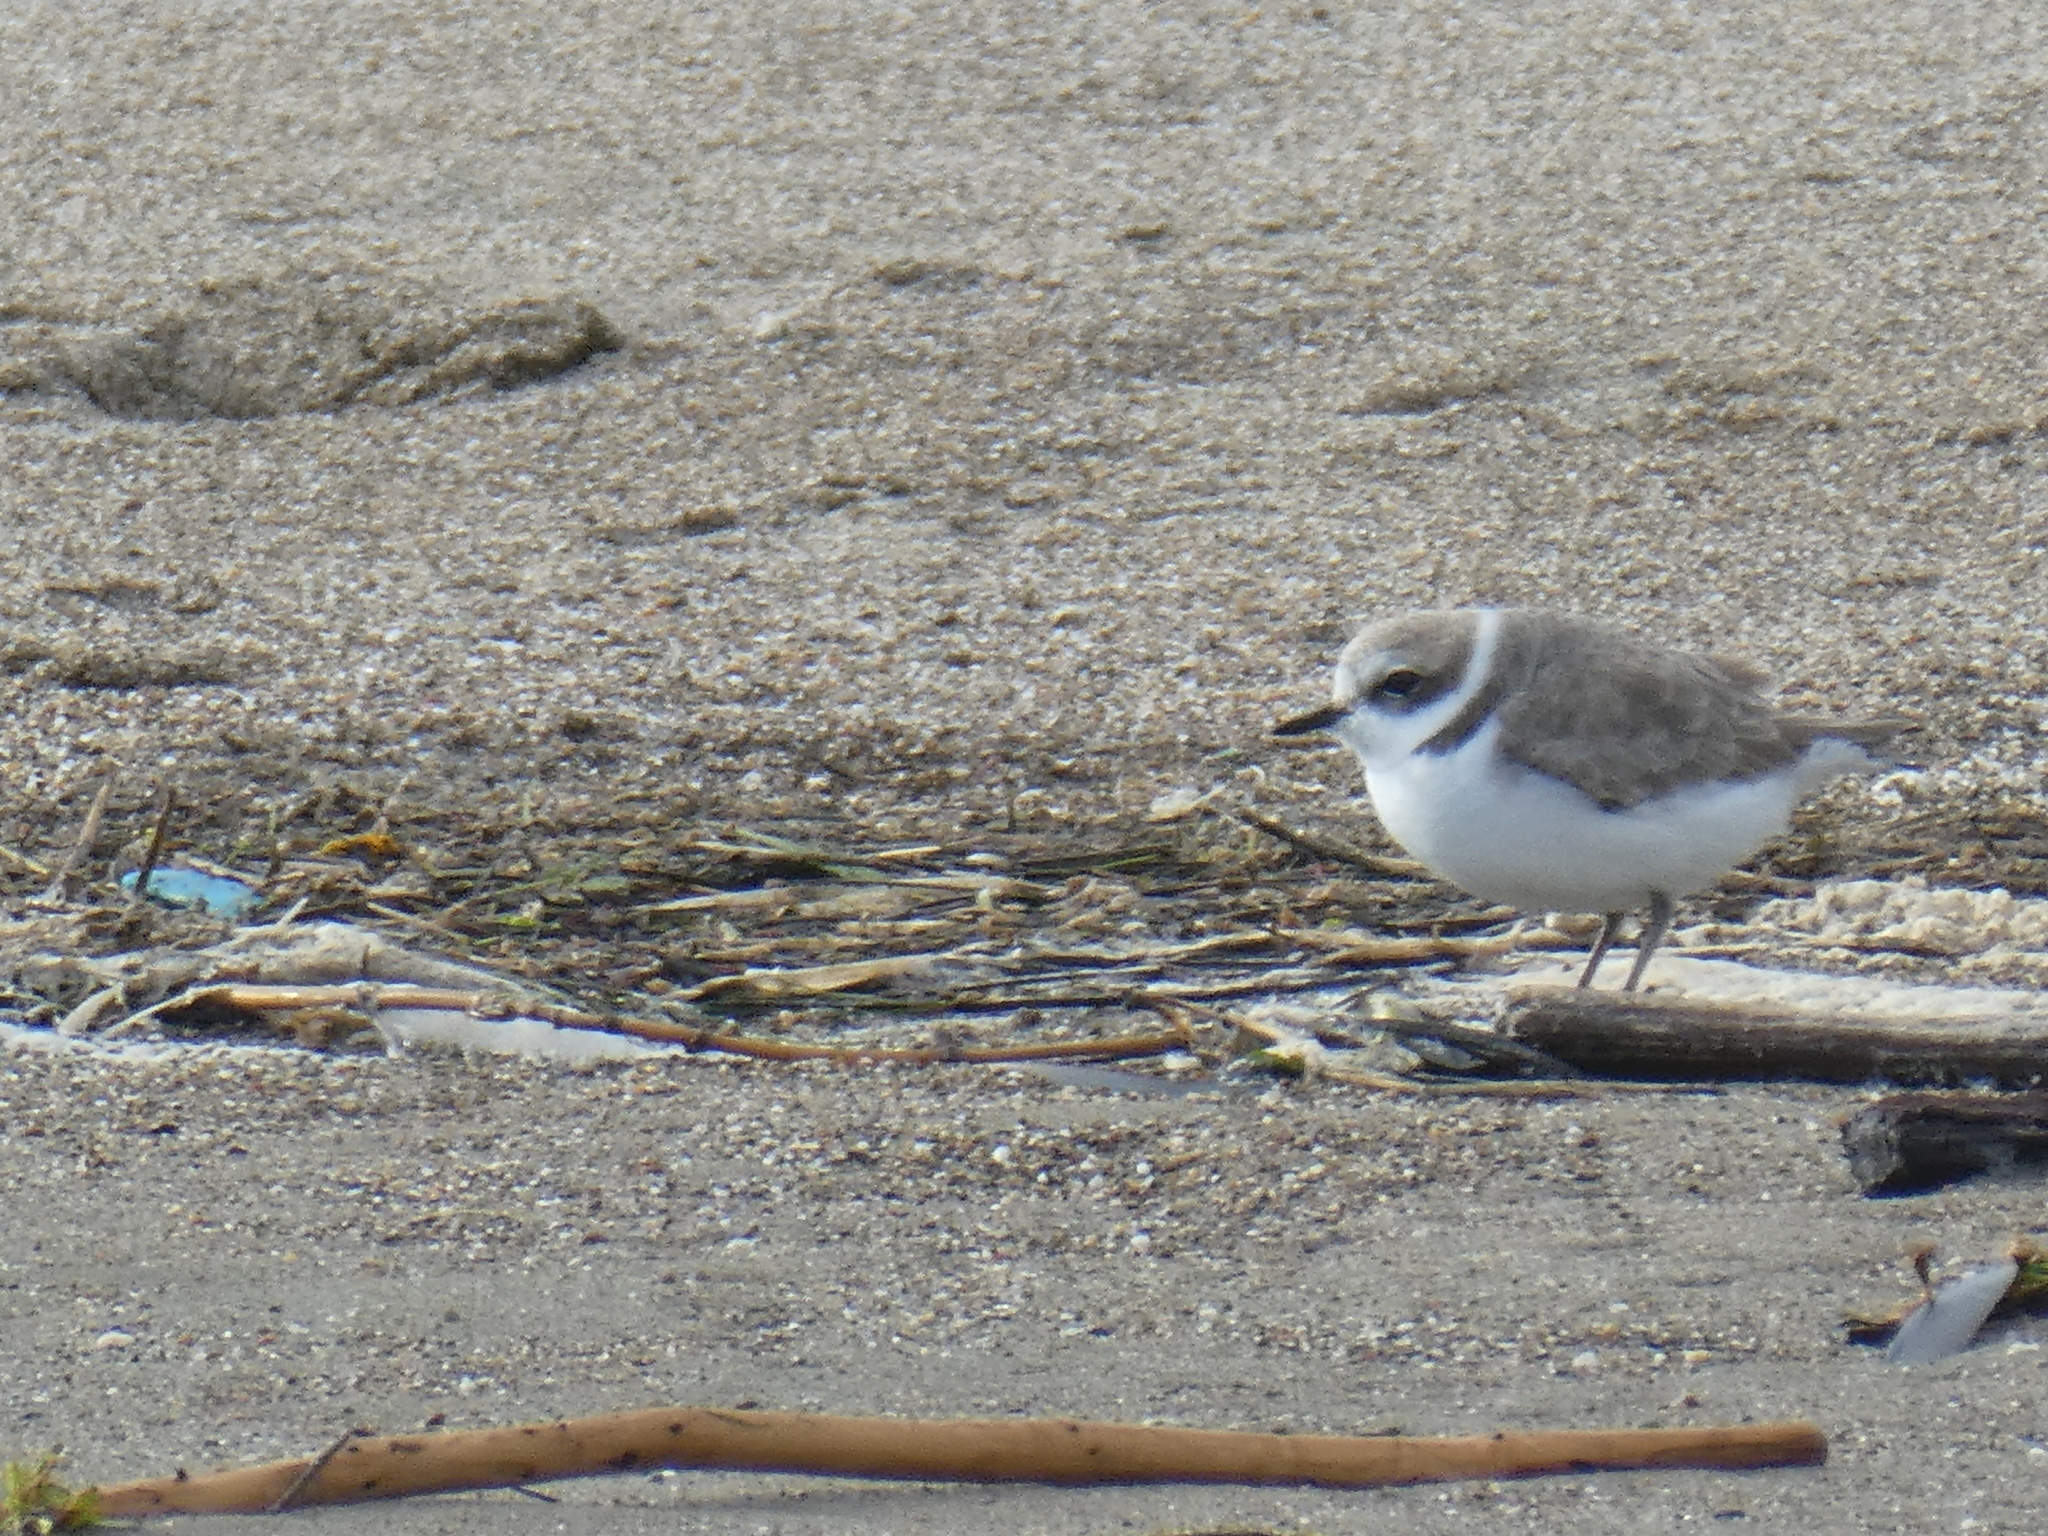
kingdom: Animalia
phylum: Chordata
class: Aves
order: Charadriiformes
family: Charadriidae
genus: Anarhynchus
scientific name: Anarhynchus
